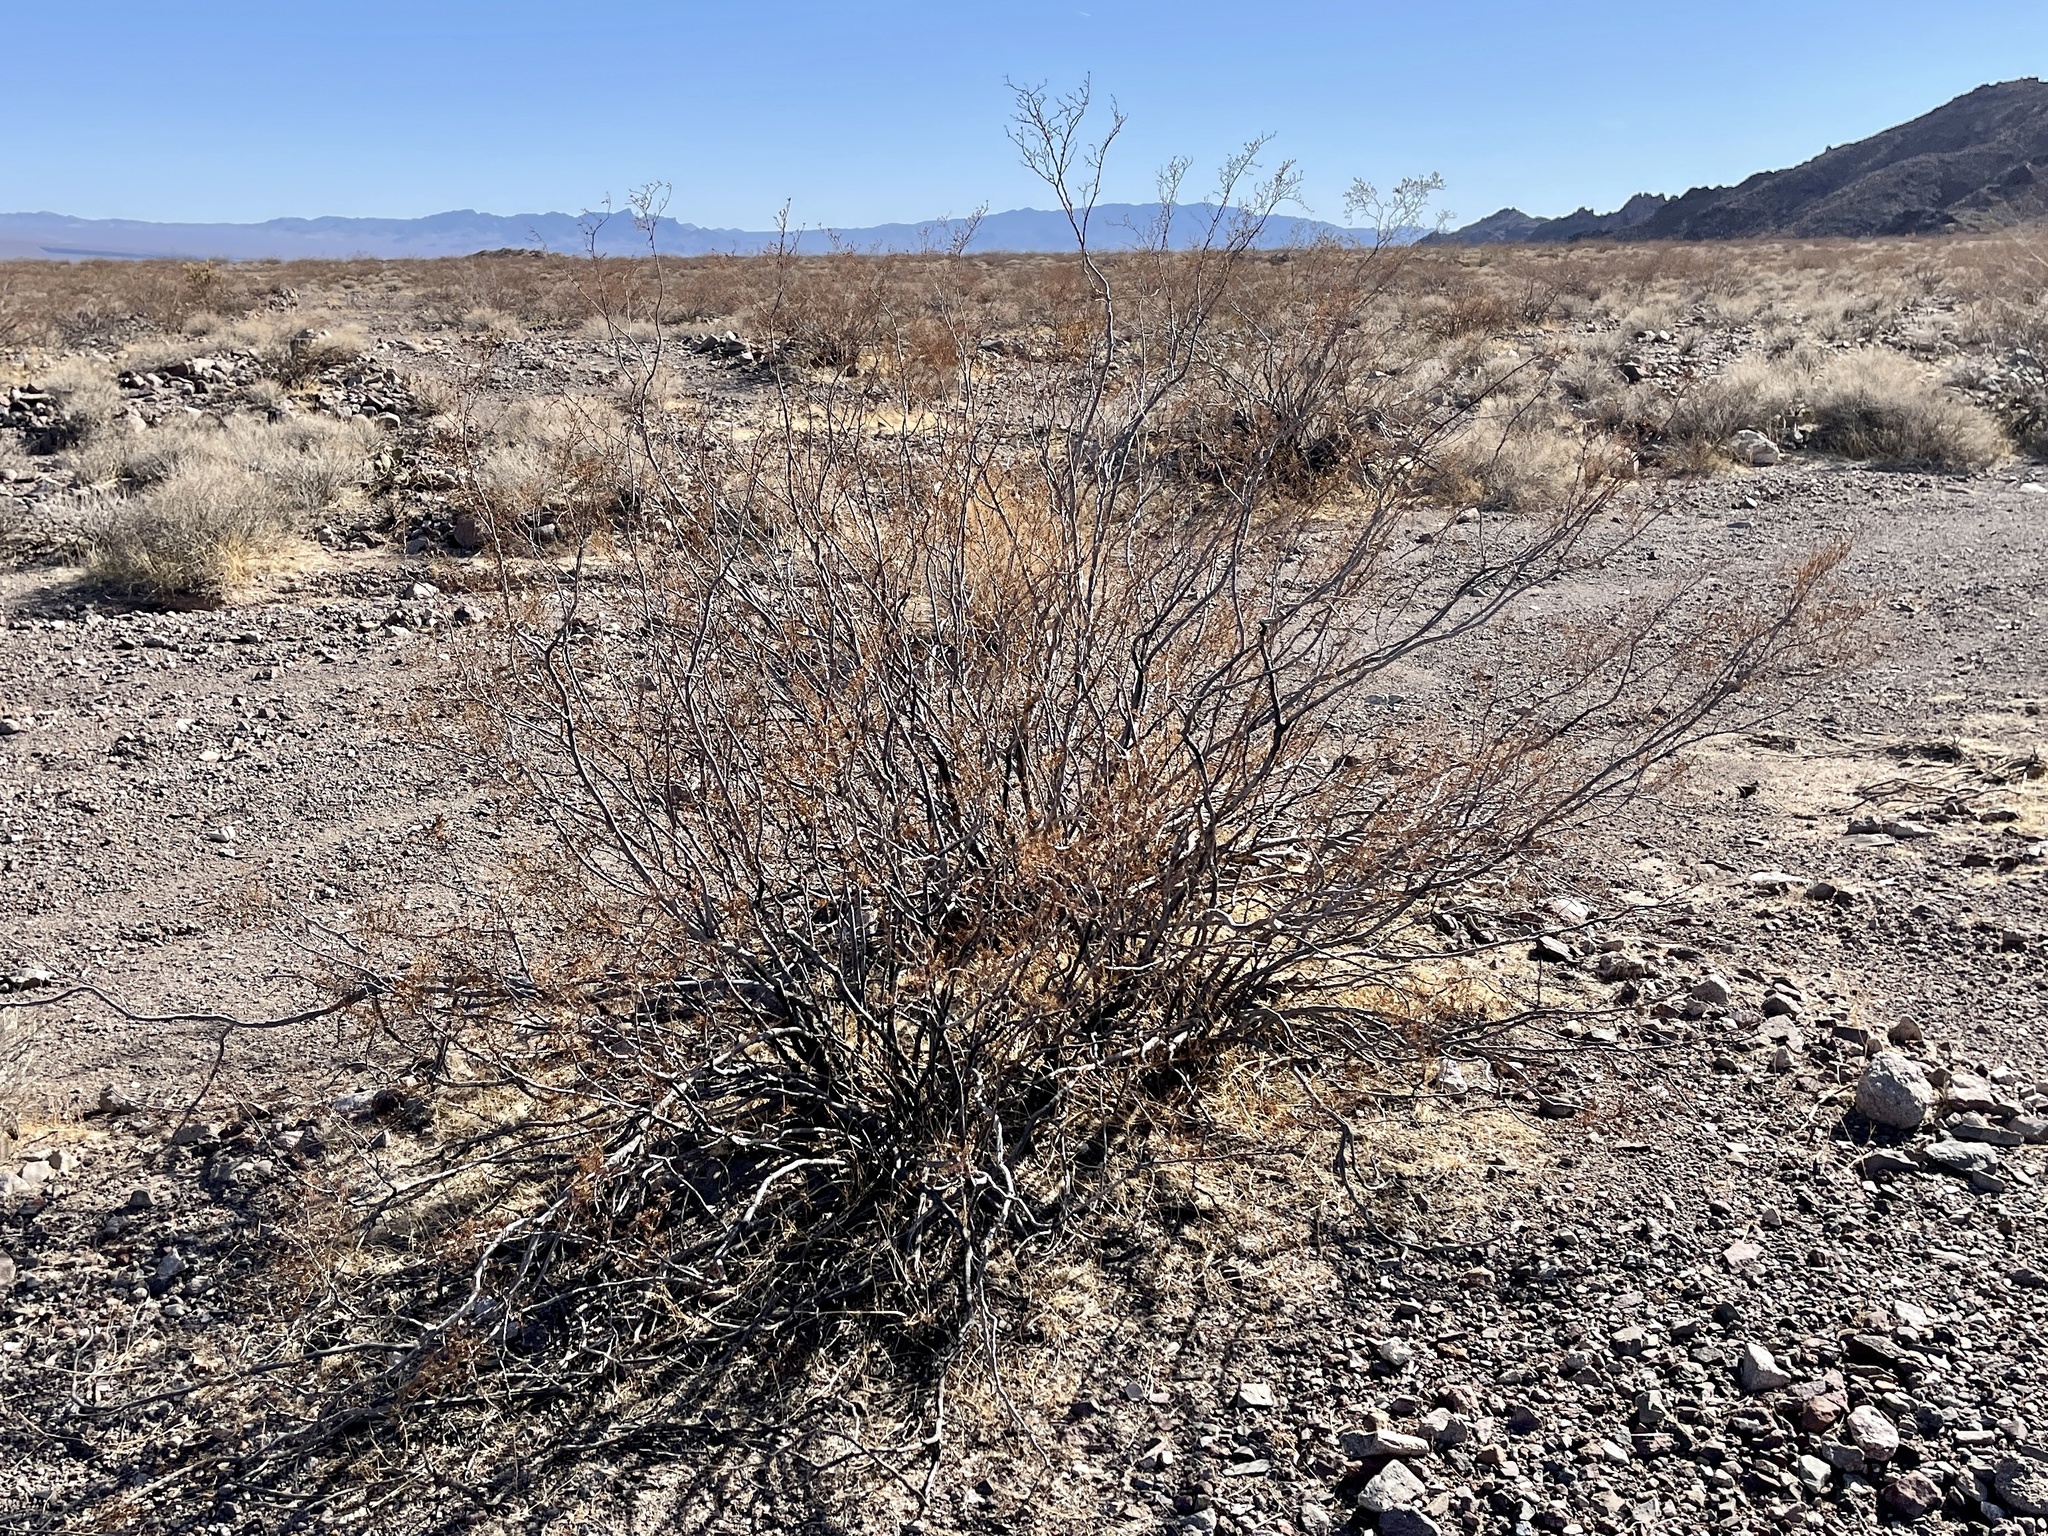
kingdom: Plantae
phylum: Tracheophyta
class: Magnoliopsida
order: Zygophyllales
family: Zygophyllaceae
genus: Larrea
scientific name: Larrea tridentata
